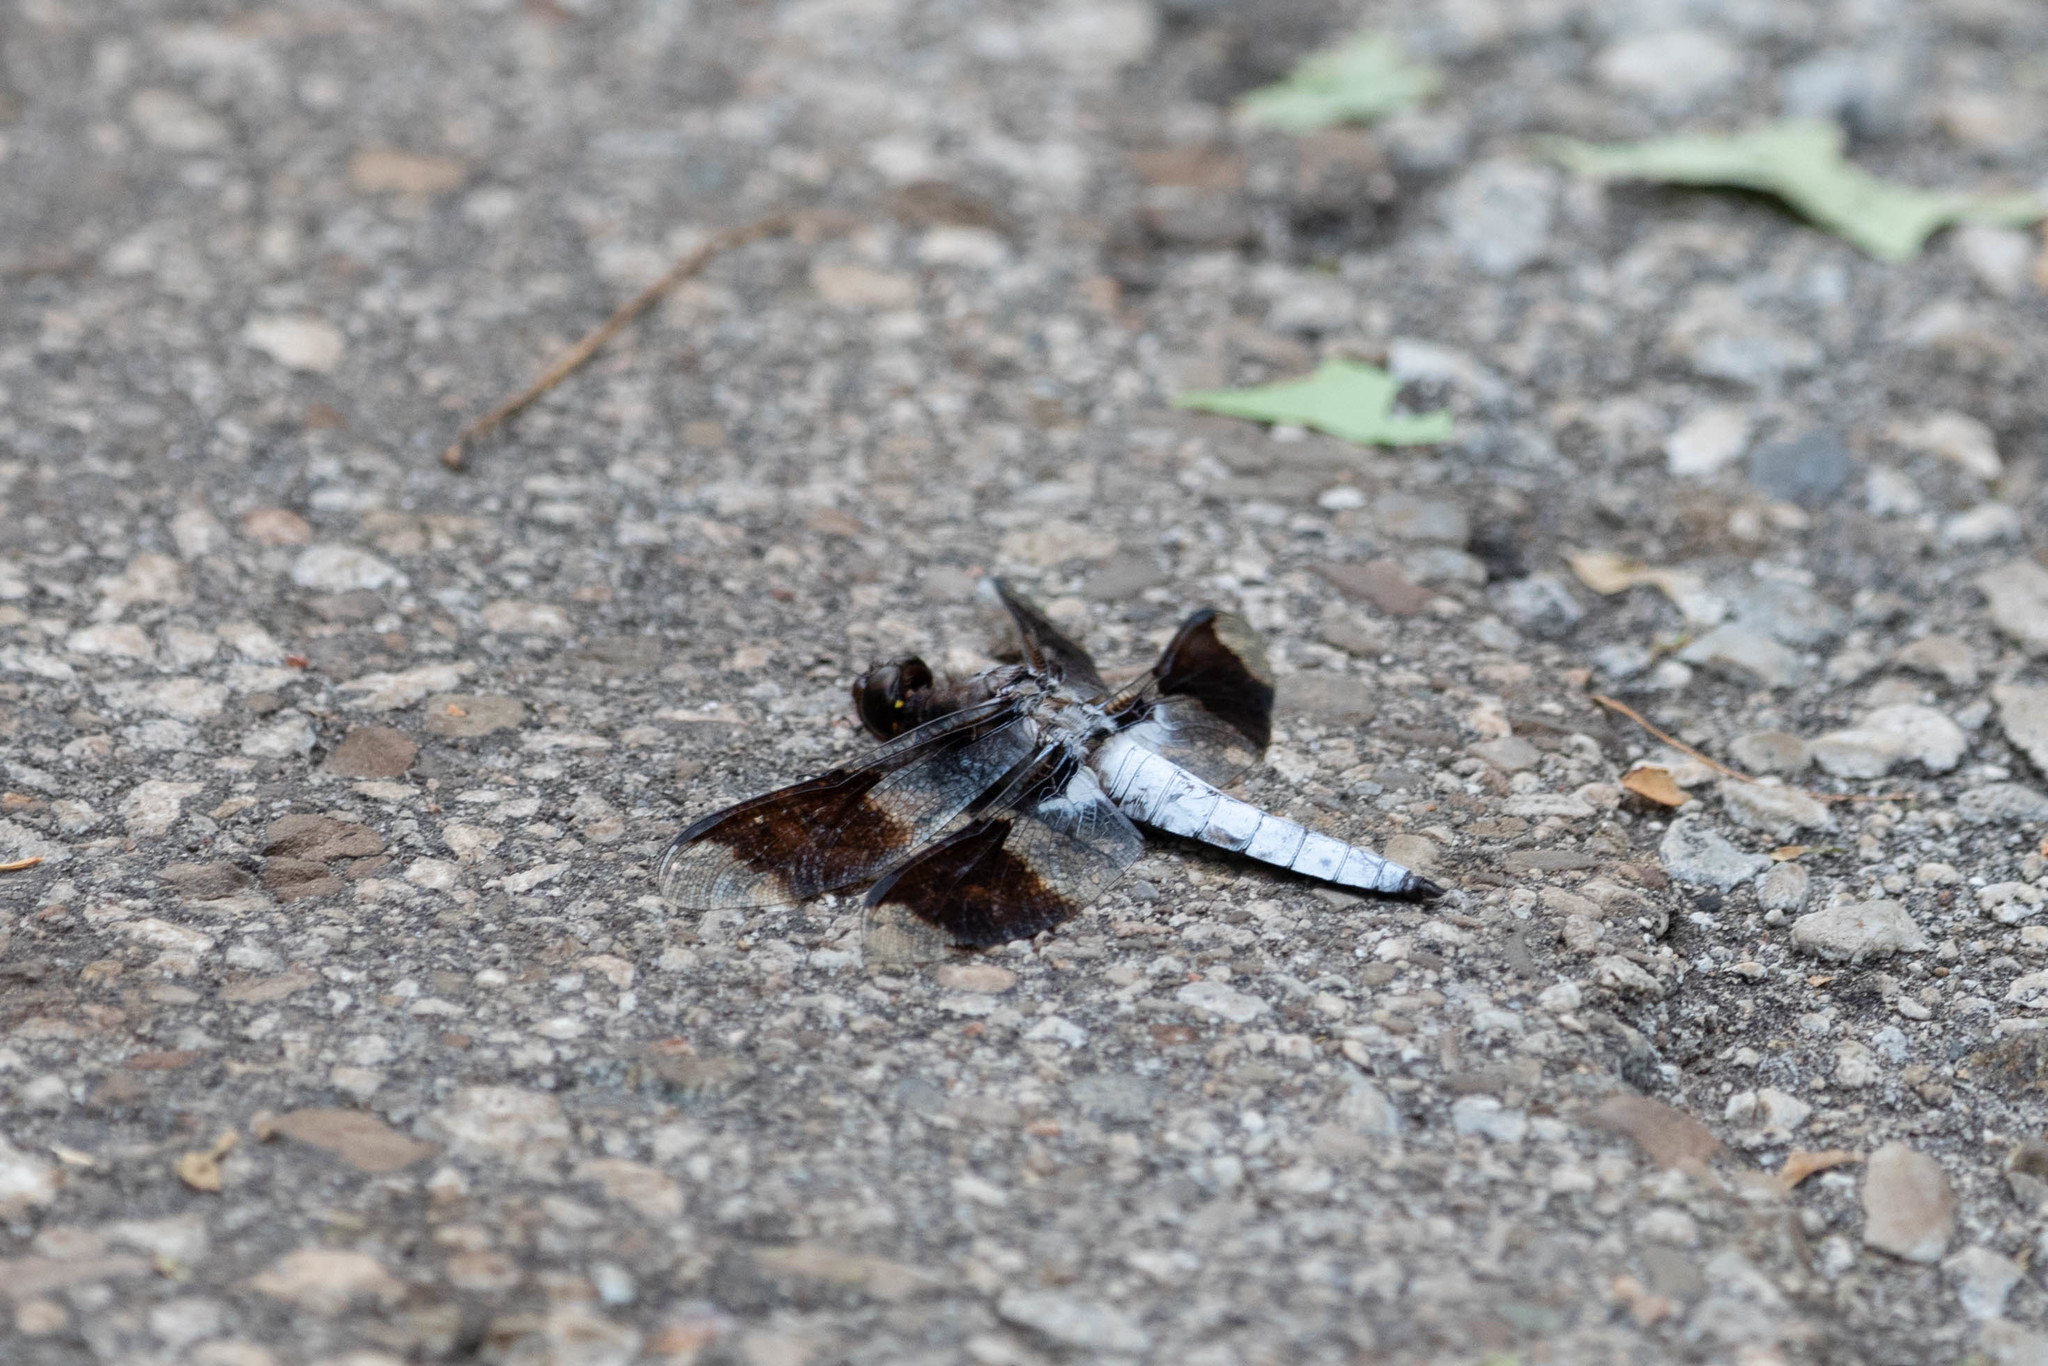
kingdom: Animalia
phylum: Arthropoda
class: Insecta
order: Odonata
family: Libellulidae
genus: Plathemis
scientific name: Plathemis lydia
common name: Common whitetail
